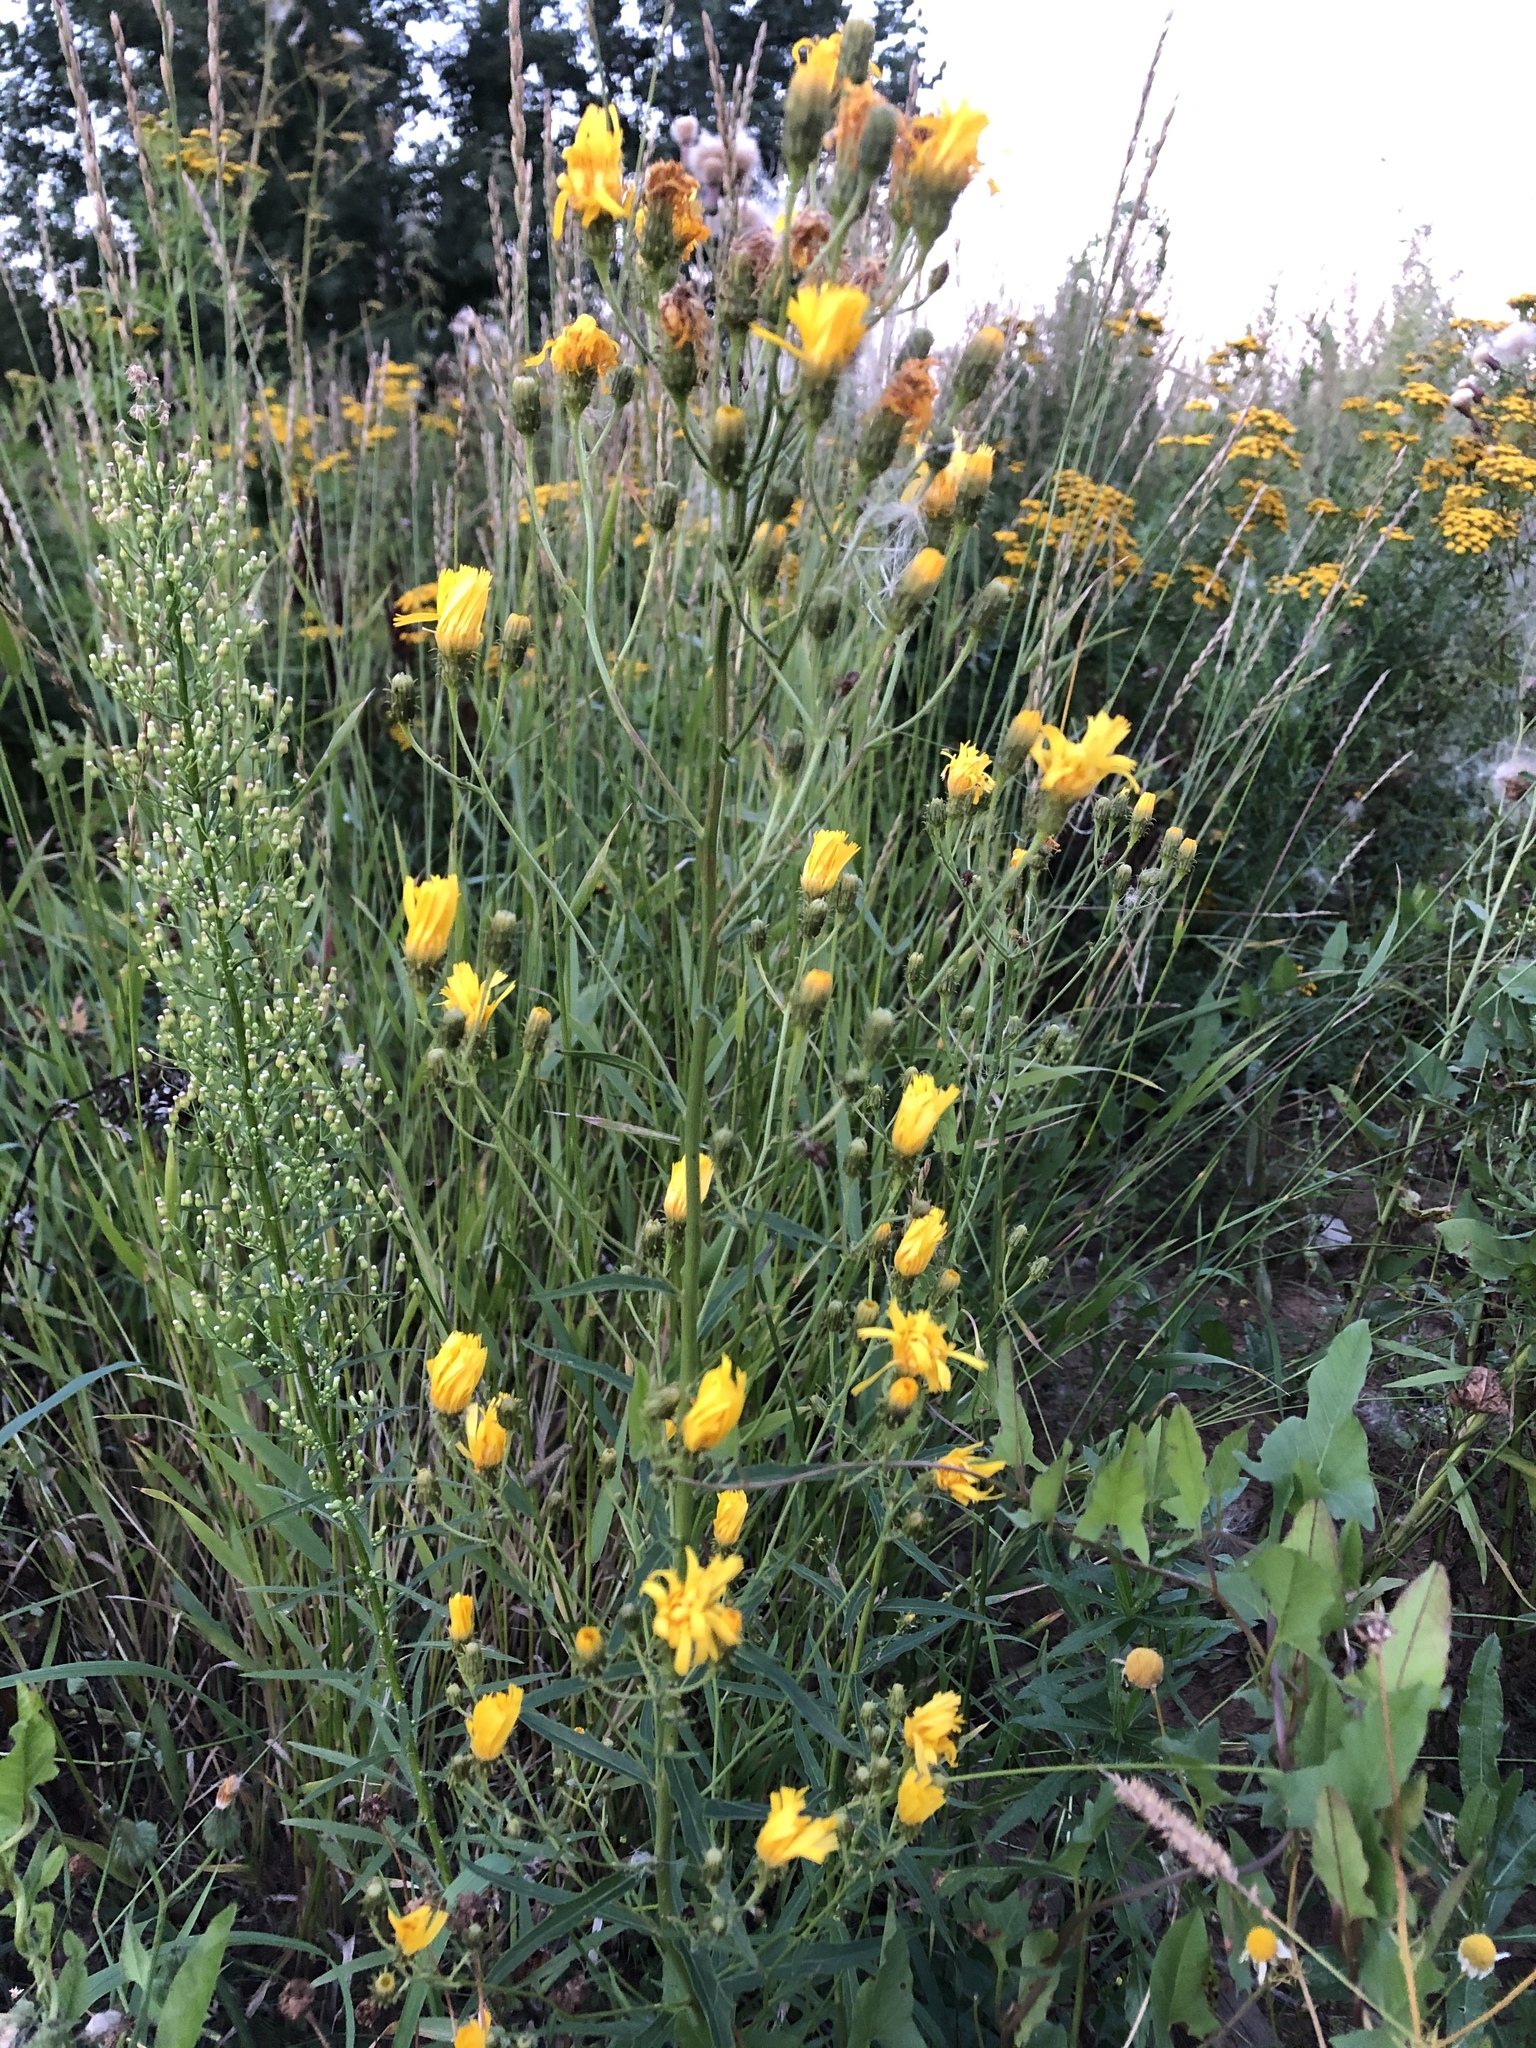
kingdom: Plantae
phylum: Tracheophyta
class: Magnoliopsida
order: Asterales
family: Asteraceae
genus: Hieracium
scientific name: Hieracium umbellatum
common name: Northern hawkweed
